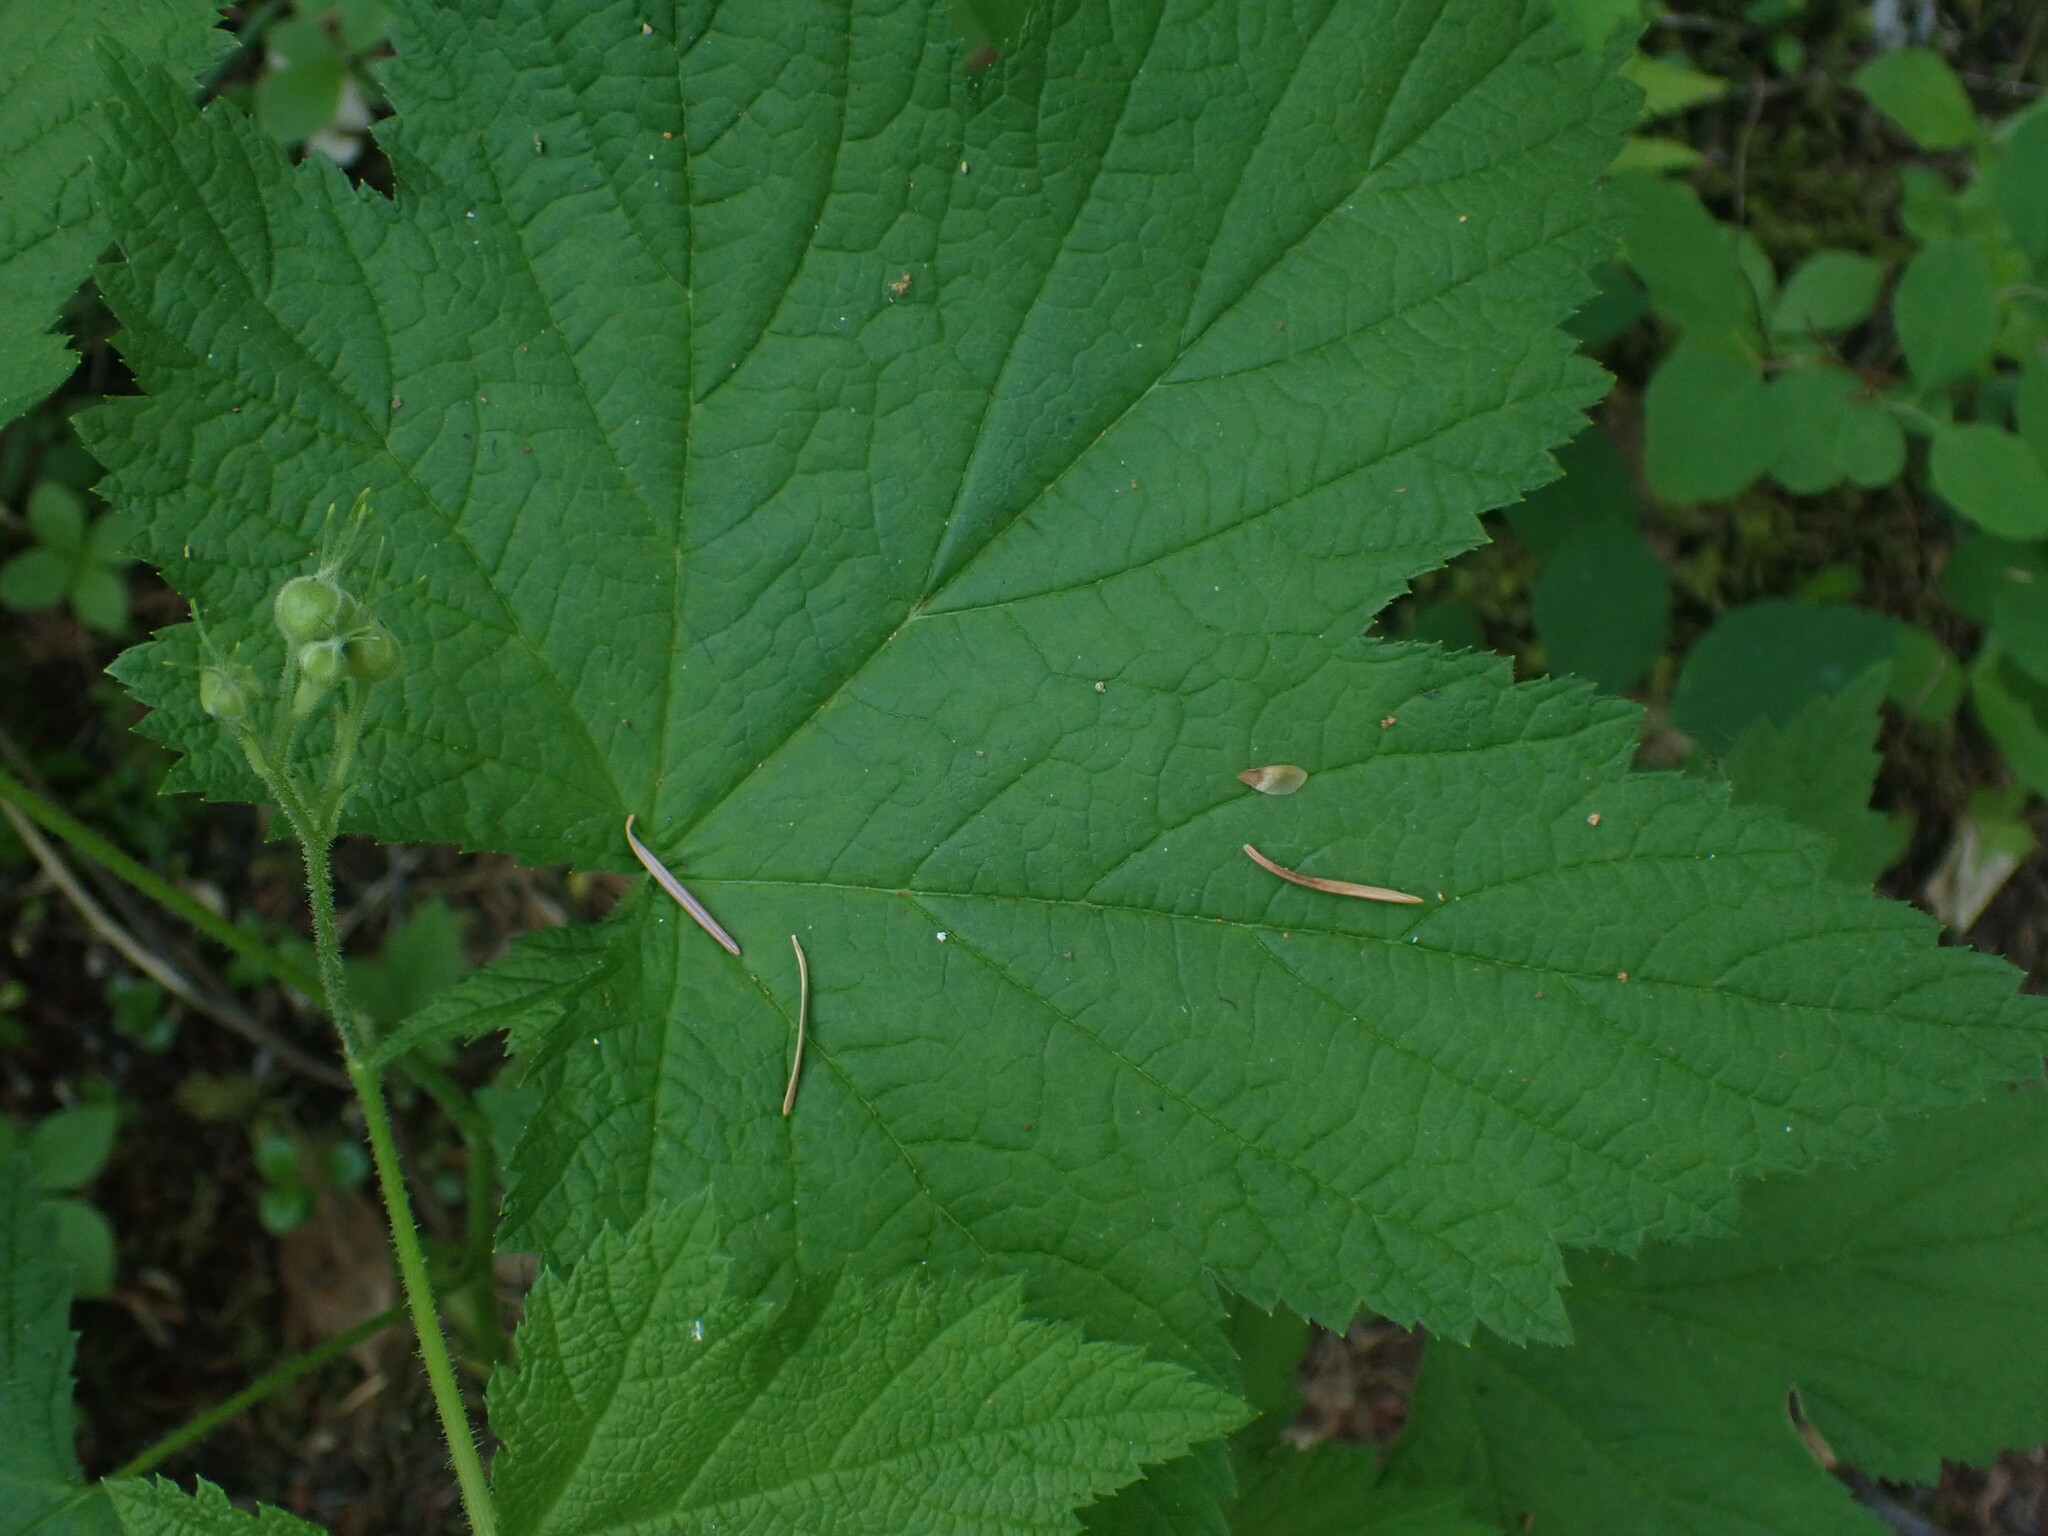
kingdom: Plantae
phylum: Tracheophyta
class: Magnoliopsida
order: Rosales
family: Rosaceae
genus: Rubus
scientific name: Rubus parviflorus
